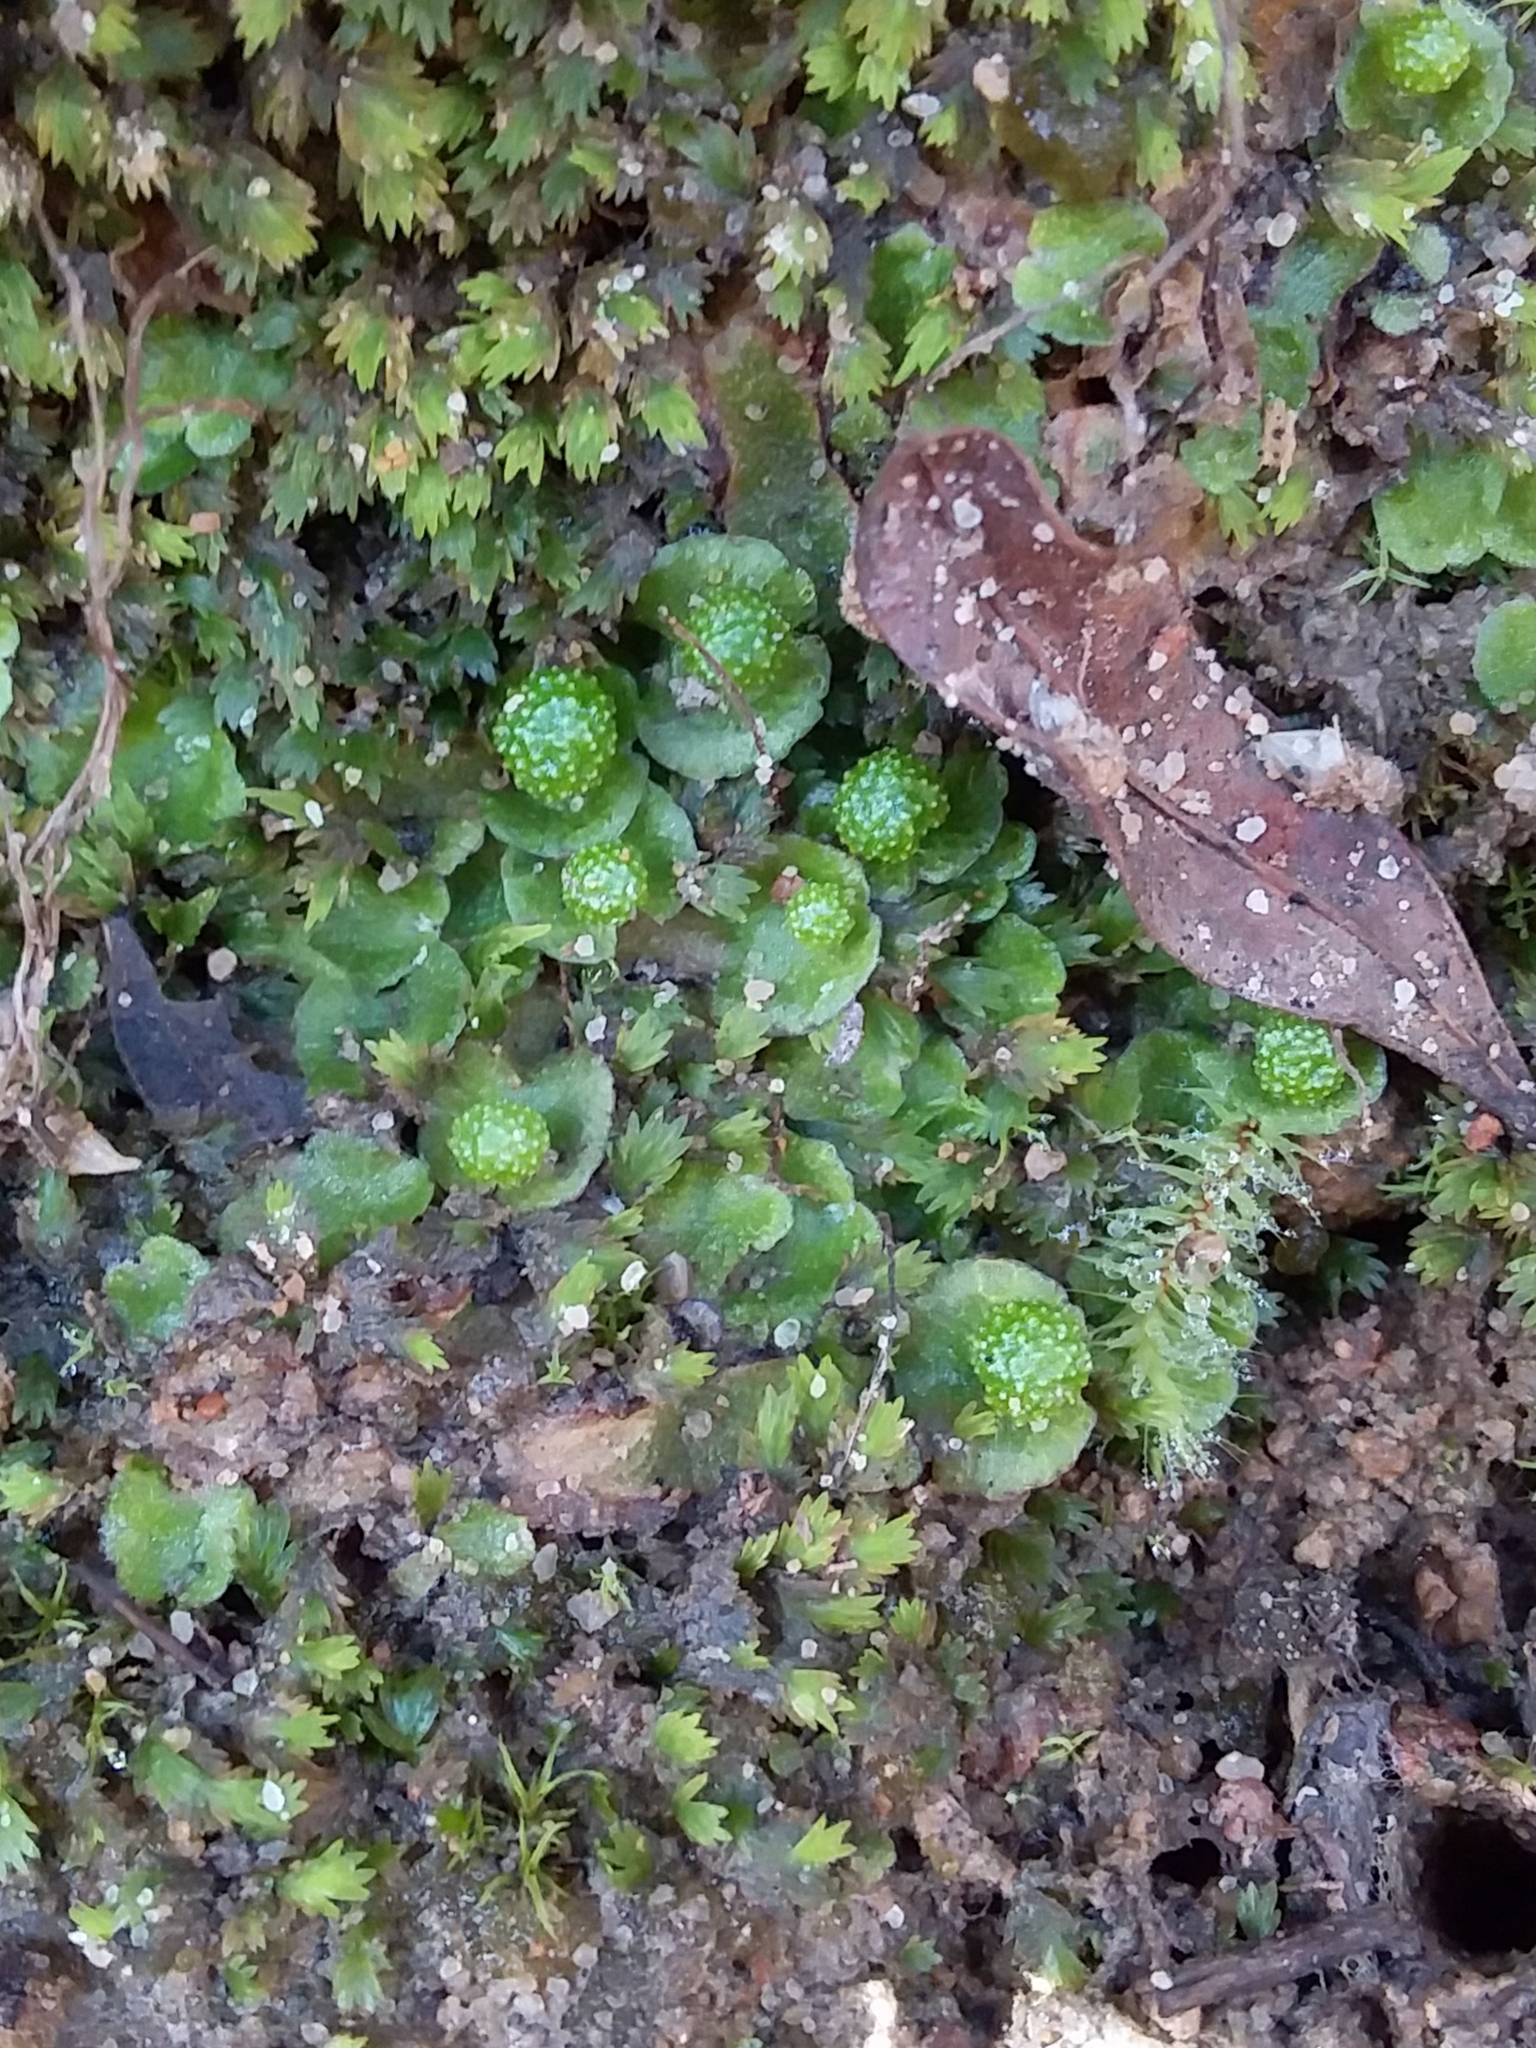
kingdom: Plantae
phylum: Marchantiophyta
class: Marchantiopsida
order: Marchantiales
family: Aytoniaceae
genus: Asterella
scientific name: Asterella drummondii
